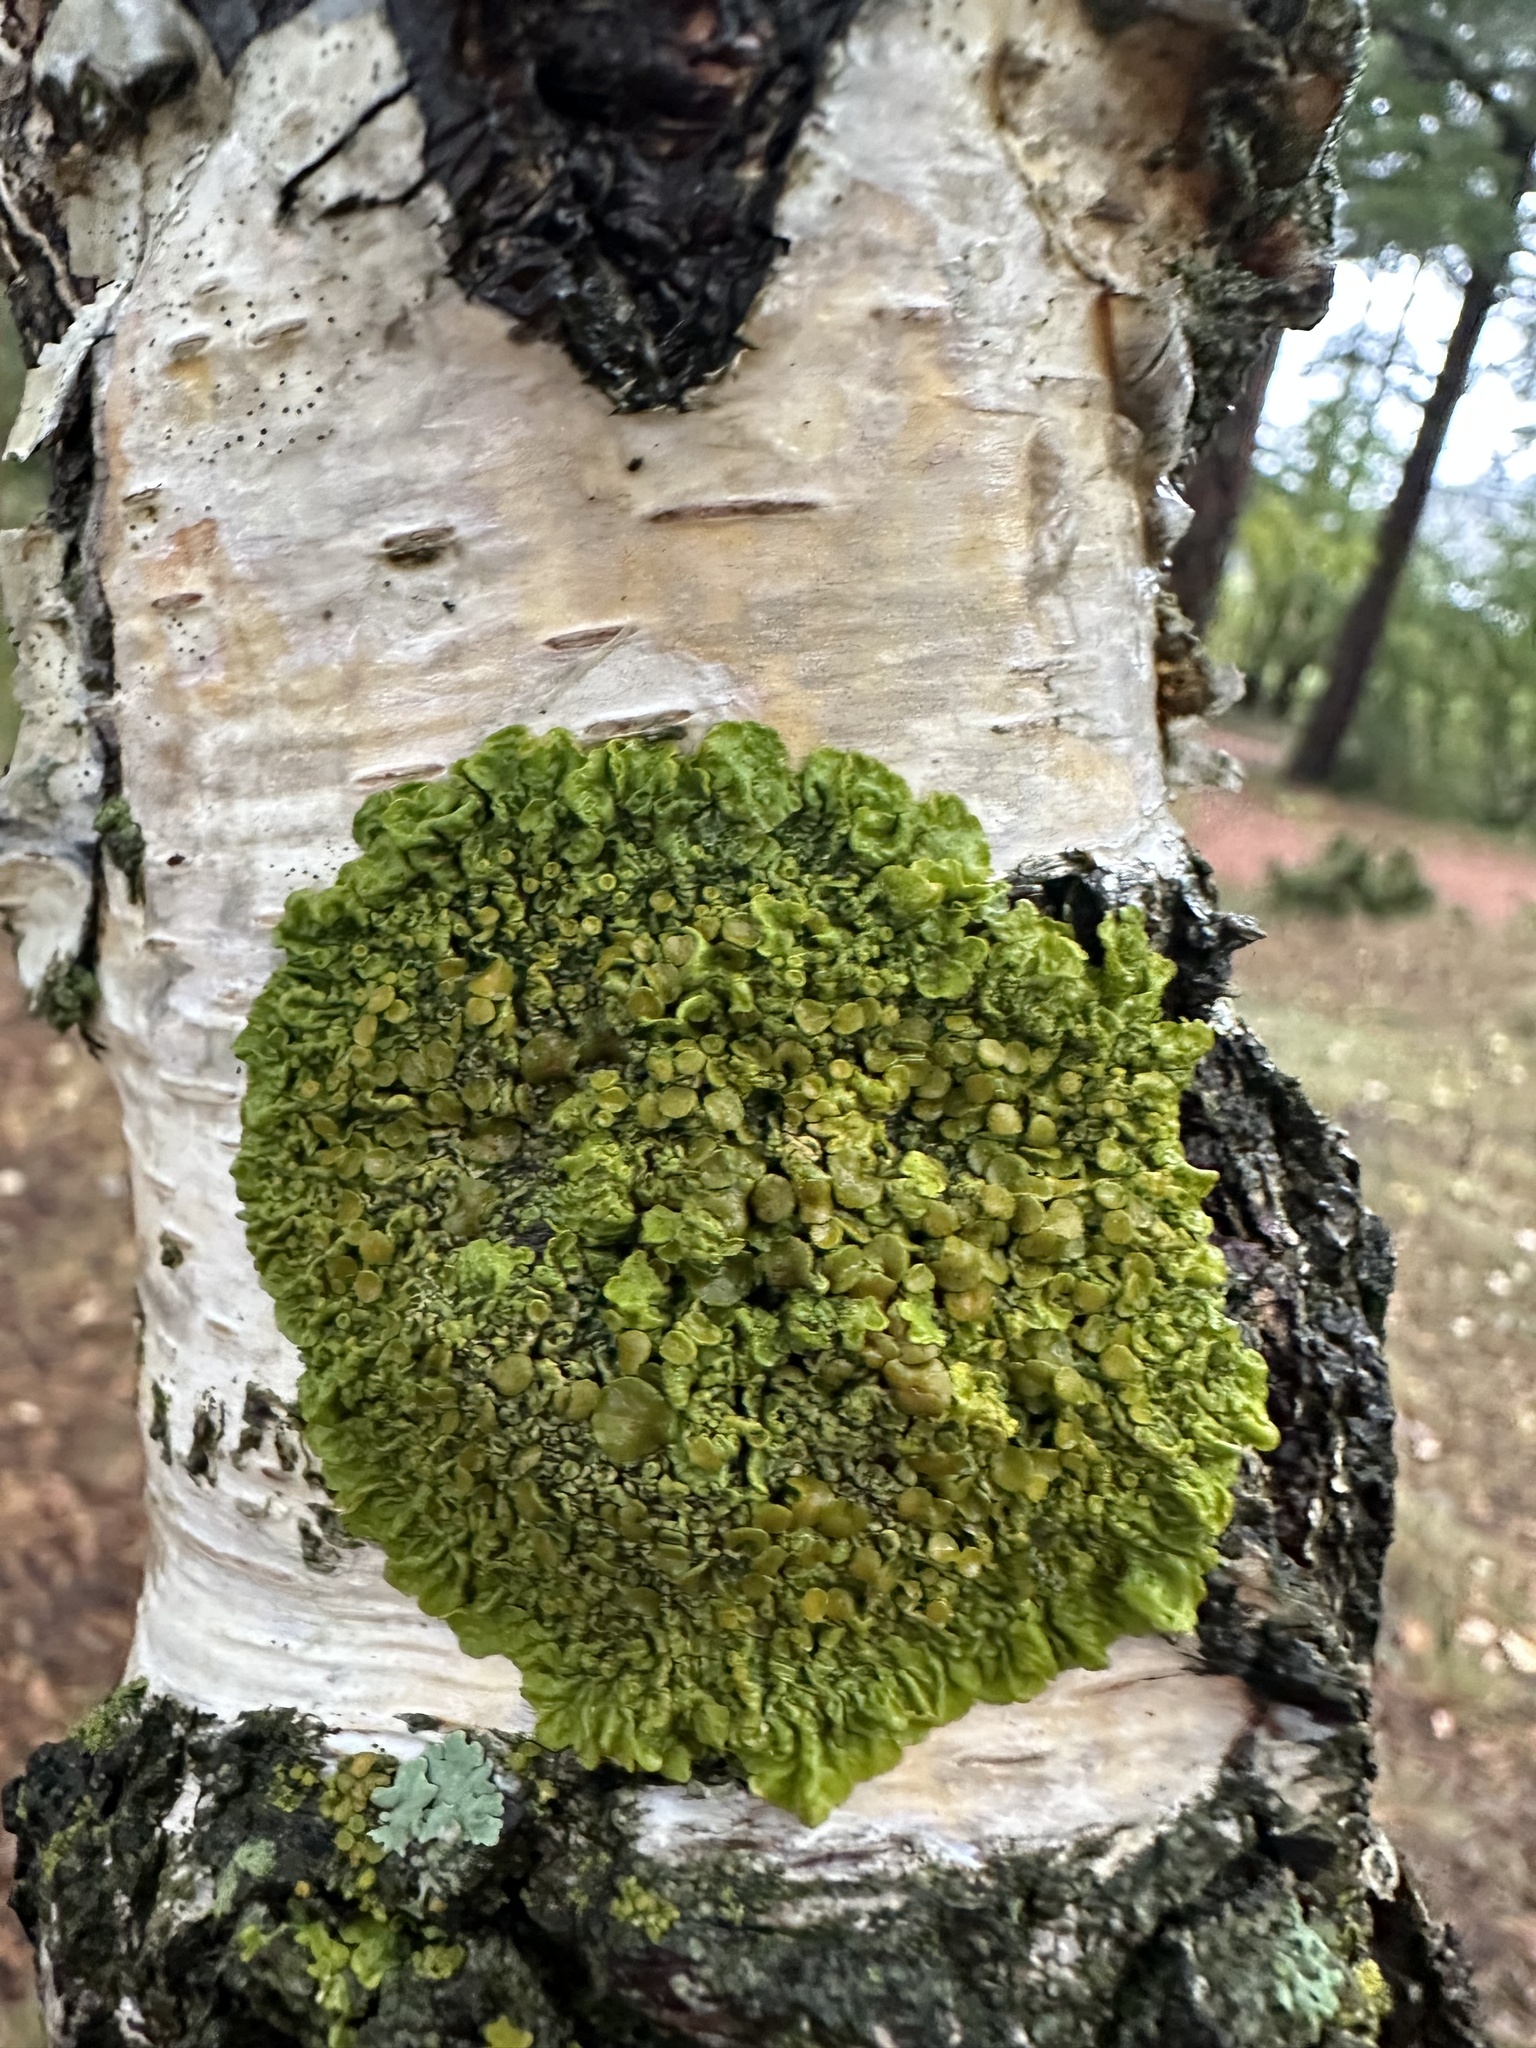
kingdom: Fungi
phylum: Ascomycota
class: Lecanoromycetes
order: Teloschistales
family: Teloschistaceae
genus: Xanthoria
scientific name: Xanthoria parietina
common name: Common orange lichen
